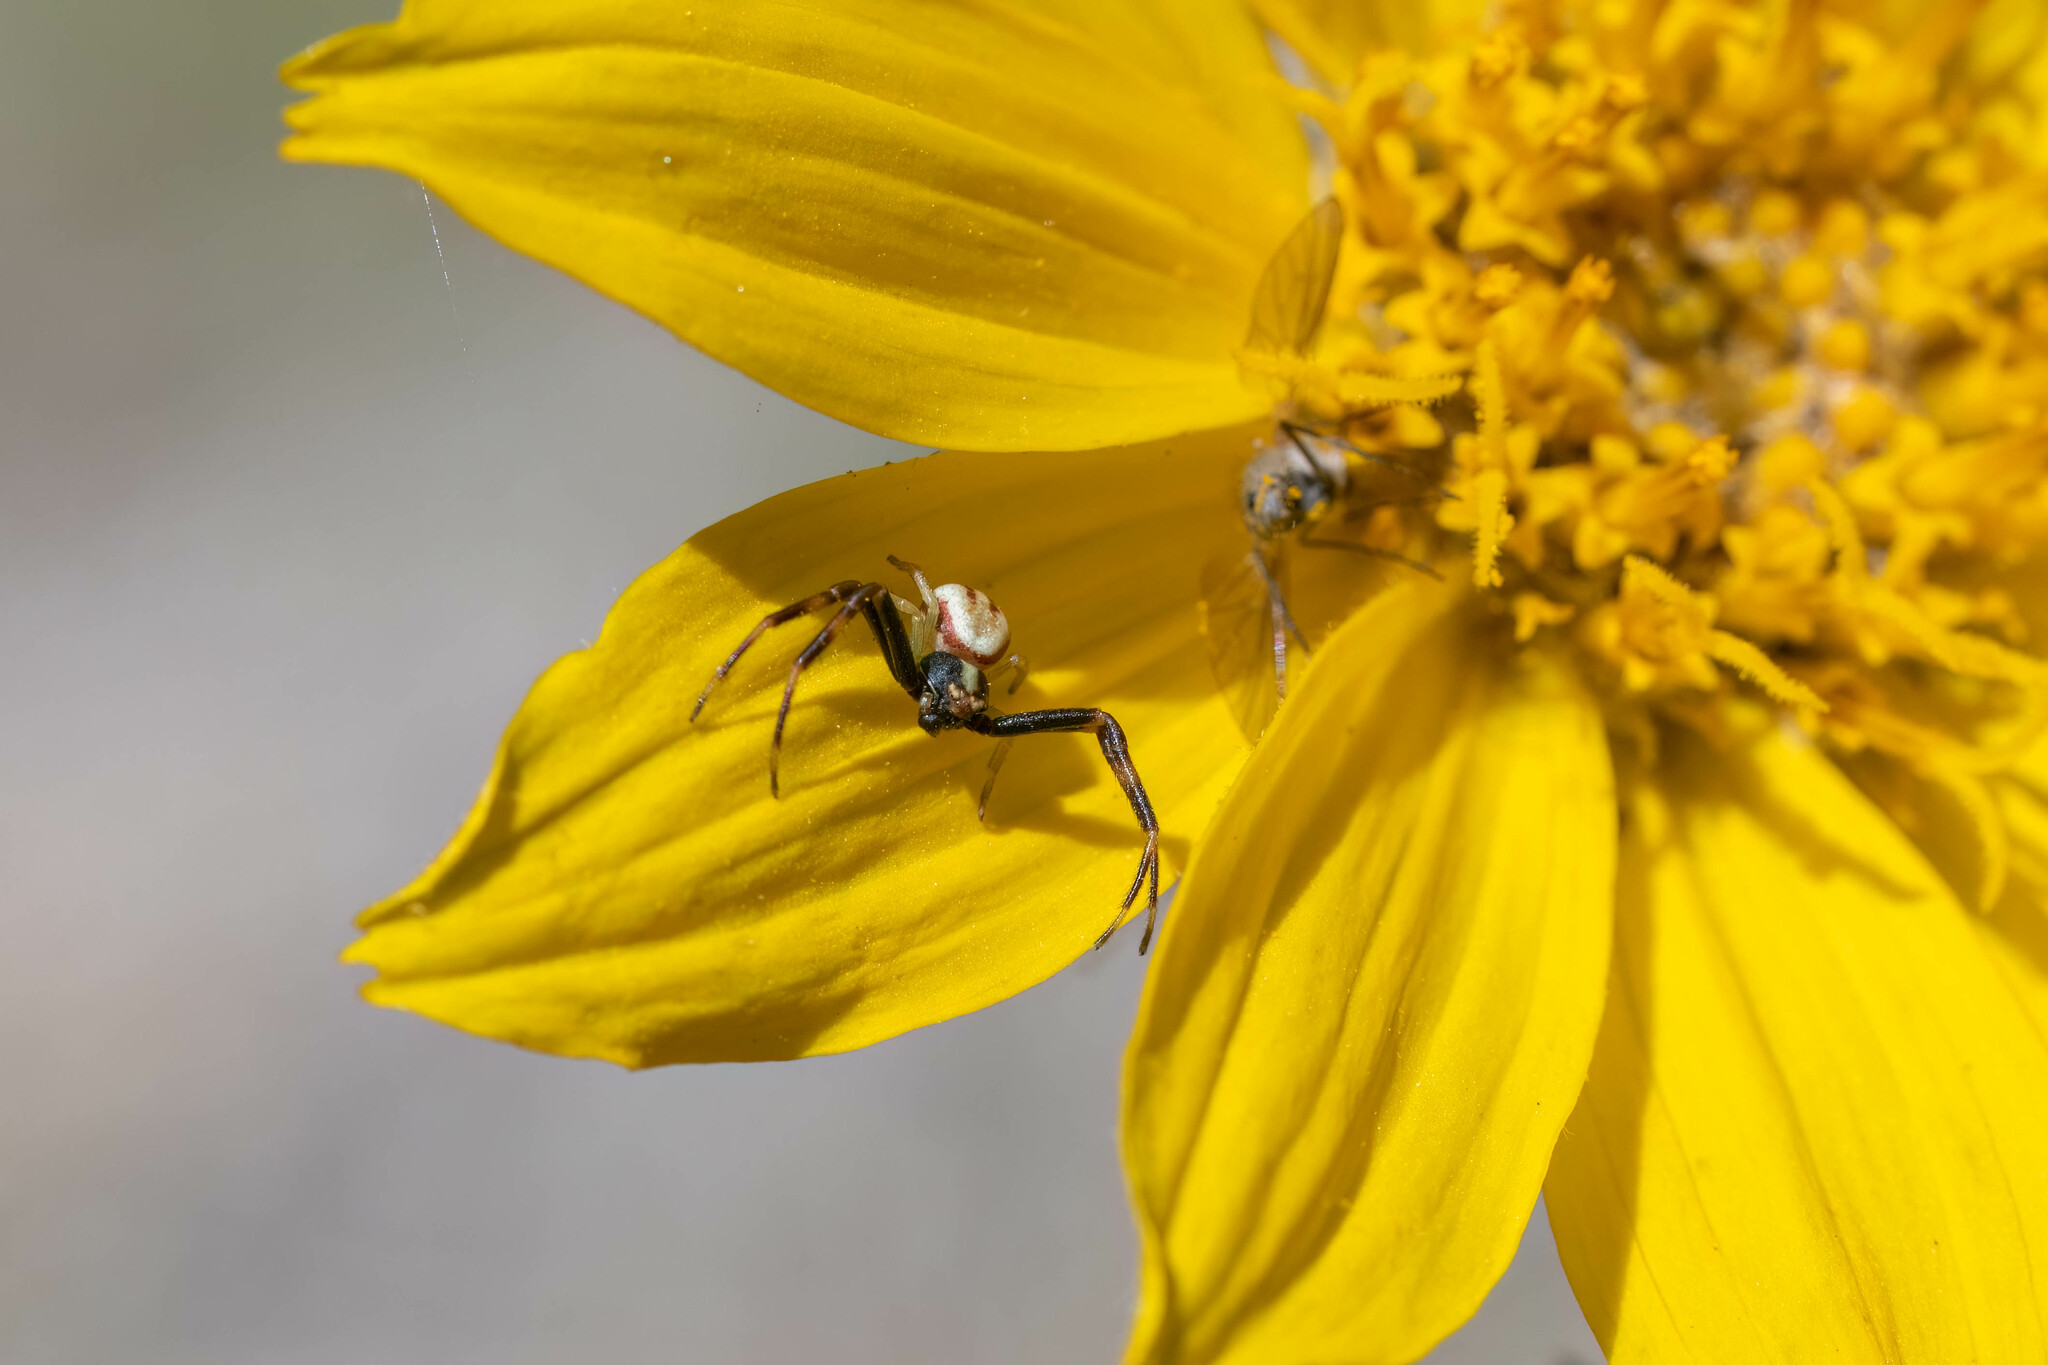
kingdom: Animalia
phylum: Arthropoda
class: Arachnida
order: Araneae
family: Thomisidae
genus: Misumena
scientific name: Misumena vatia
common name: Goldenrod crab spider
